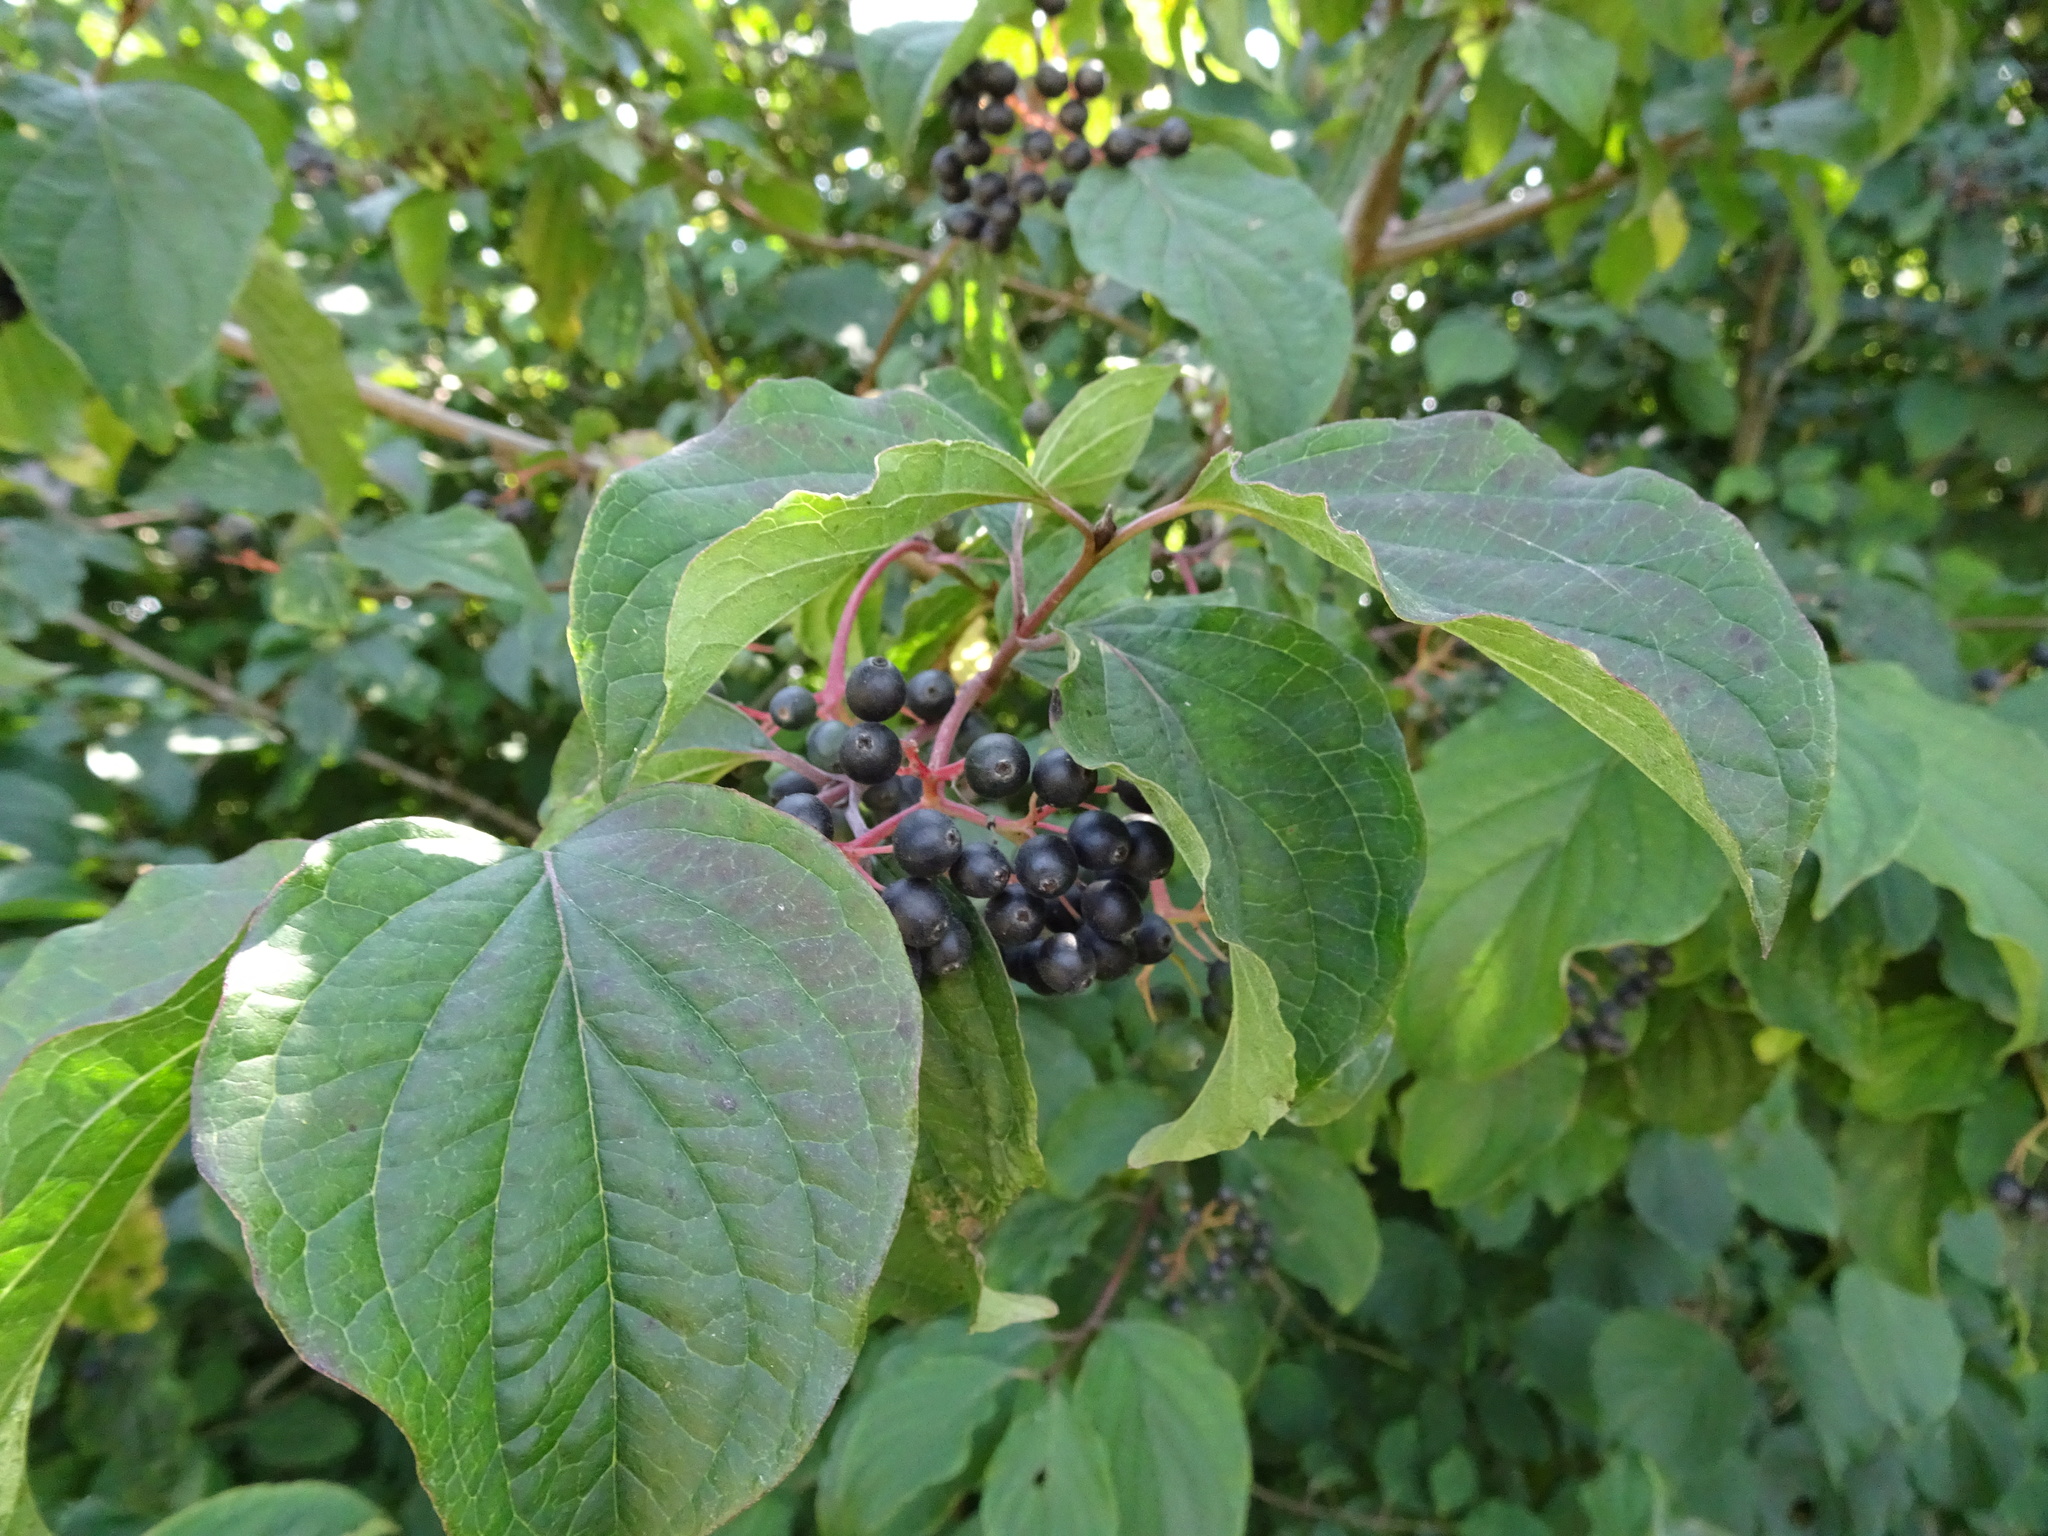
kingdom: Plantae
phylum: Tracheophyta
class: Magnoliopsida
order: Cornales
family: Cornaceae
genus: Cornus
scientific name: Cornus sanguinea
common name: Dogwood
